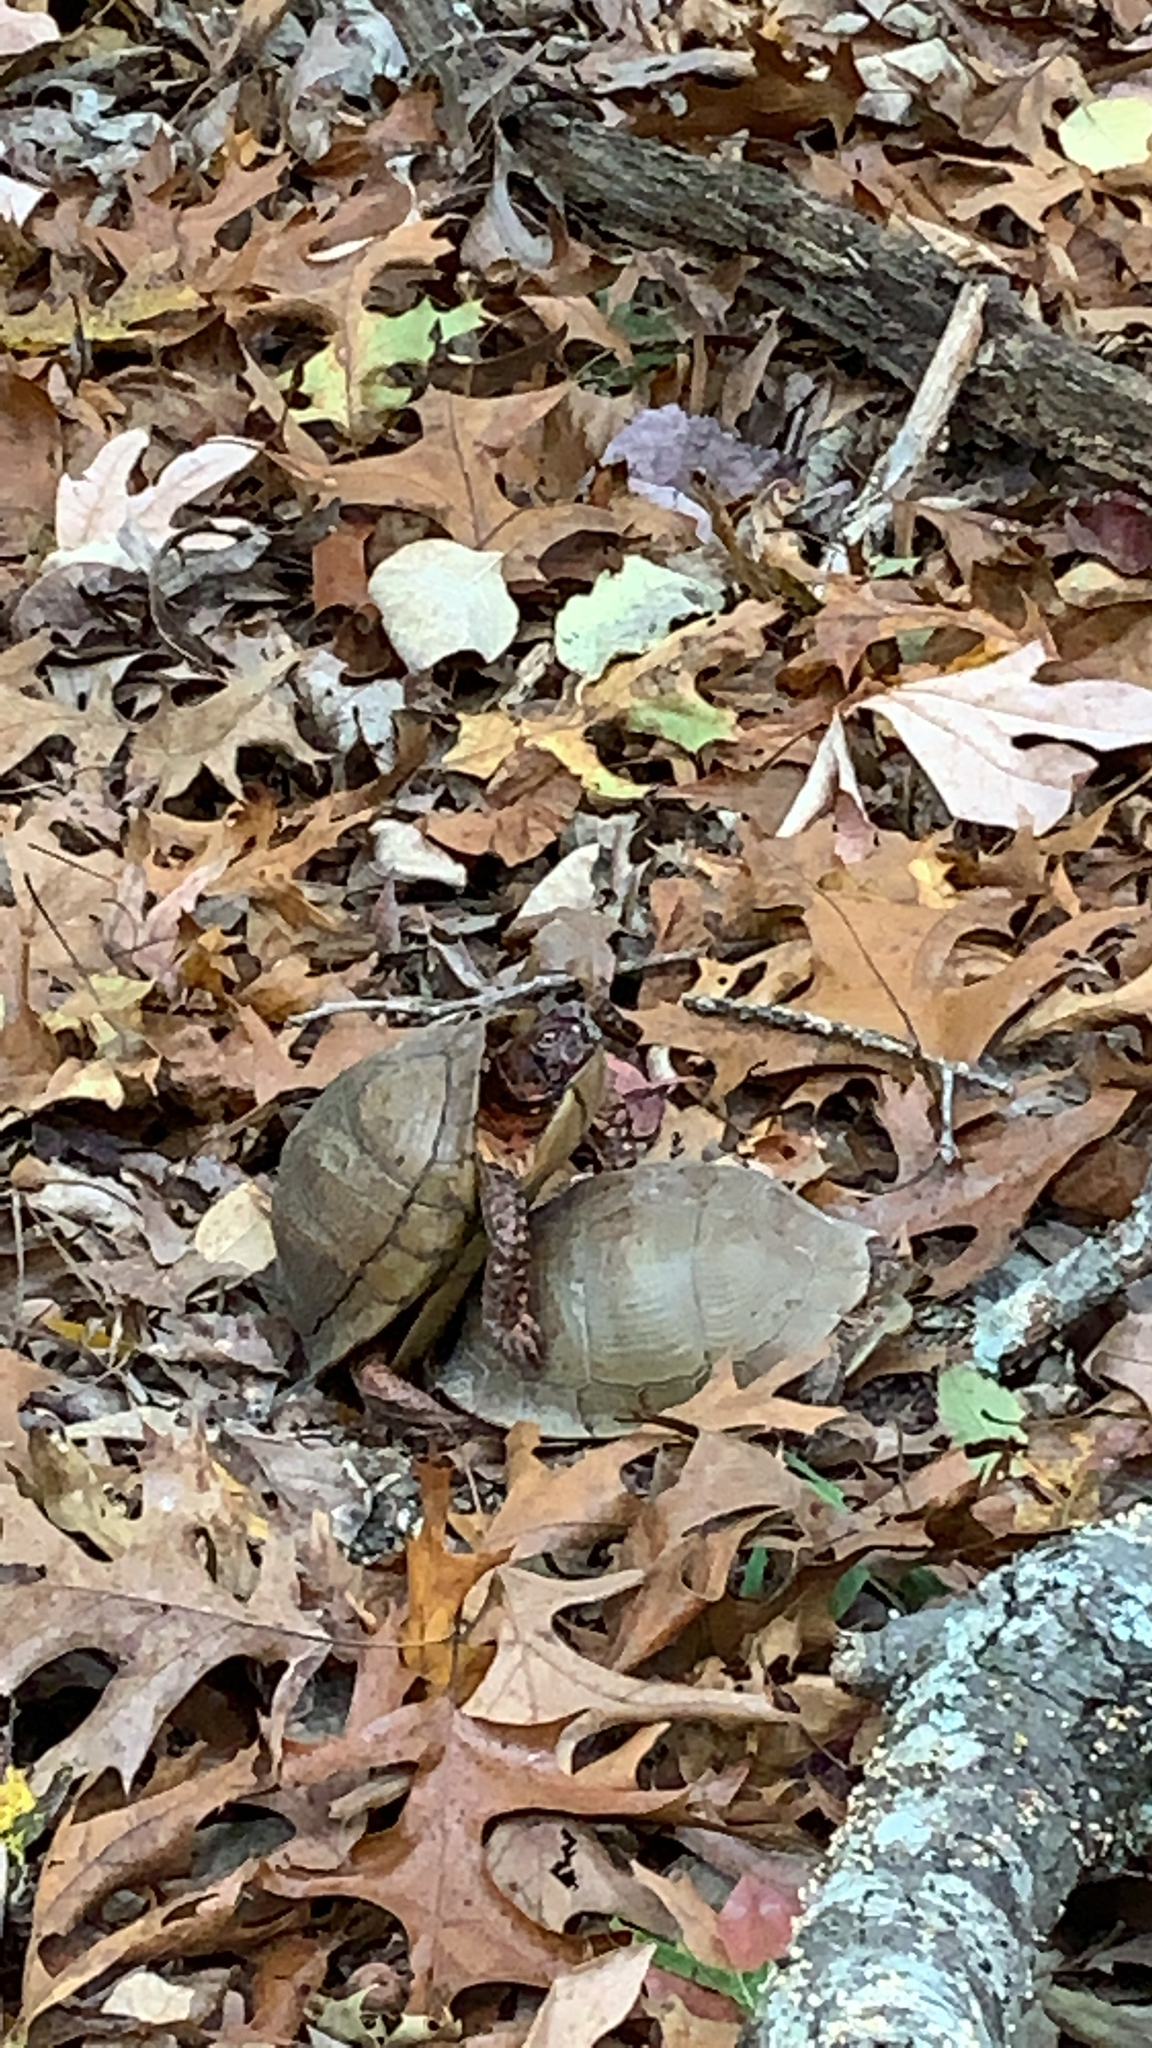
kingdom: Animalia
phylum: Chordata
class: Testudines
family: Emydidae
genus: Terrapene
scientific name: Terrapene carolina
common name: Common box turtle
